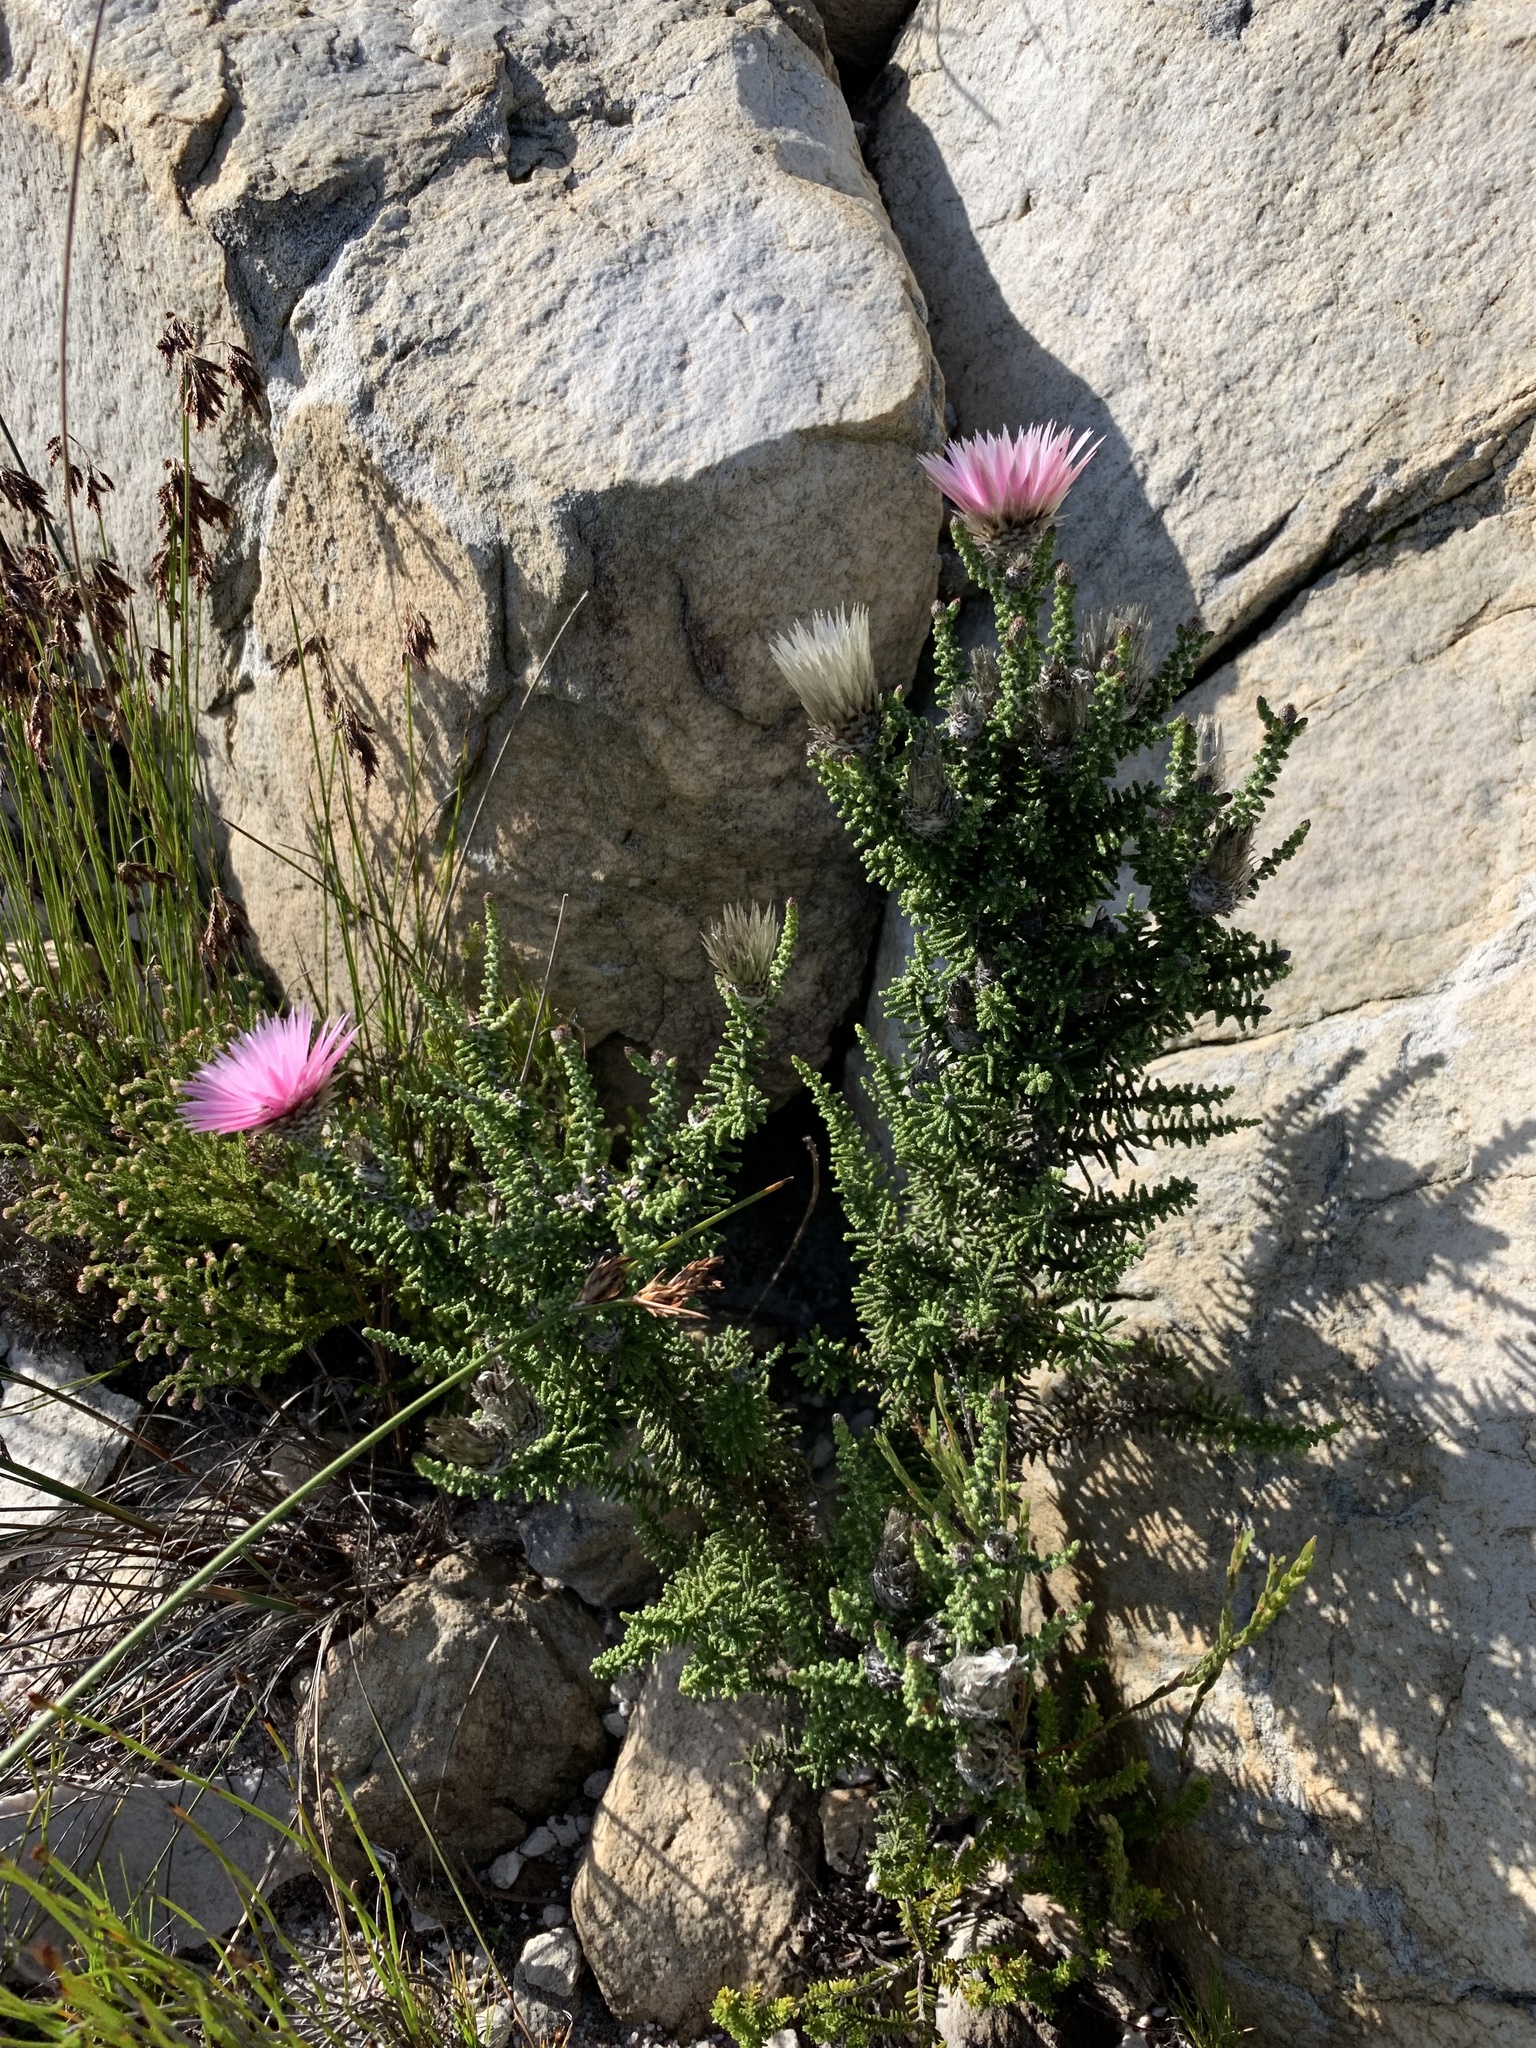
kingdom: Plantae
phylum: Tracheophyta
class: Magnoliopsida
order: Asterales
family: Asteraceae
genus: Phaenocoma
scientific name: Phaenocoma prolifera
